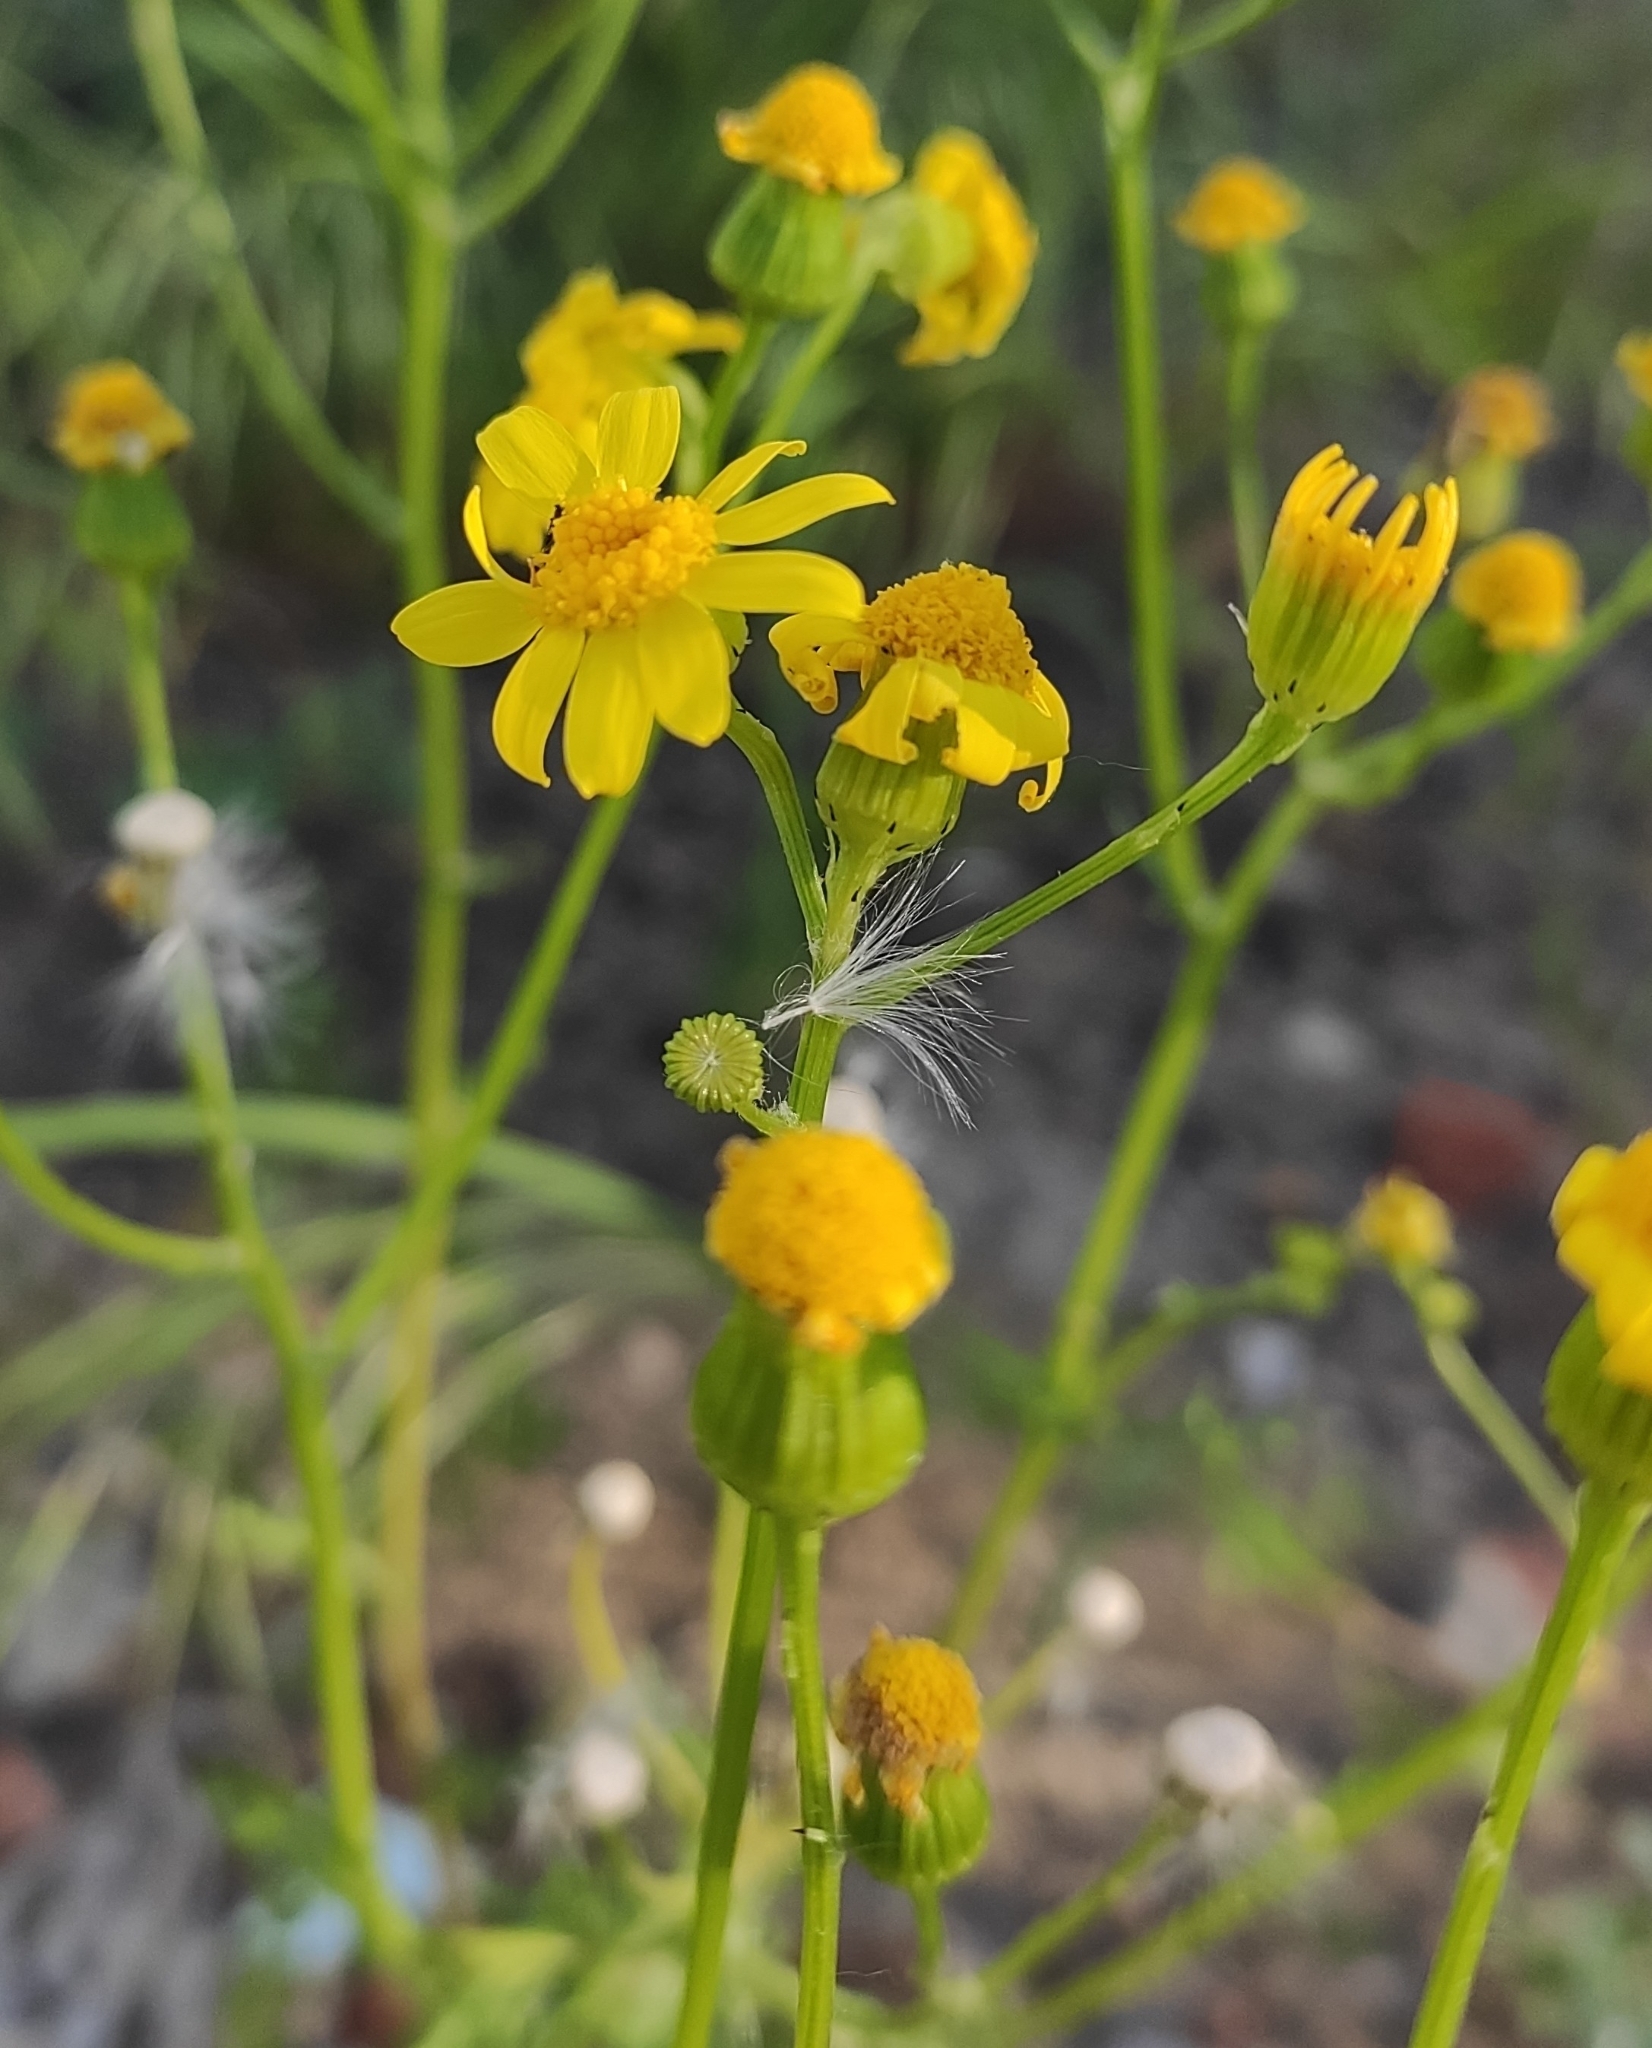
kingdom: Plantae
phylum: Tracheophyta
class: Magnoliopsida
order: Asterales
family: Asteraceae
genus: Senecio
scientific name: Senecio vernalis
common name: Eastern groundsel
